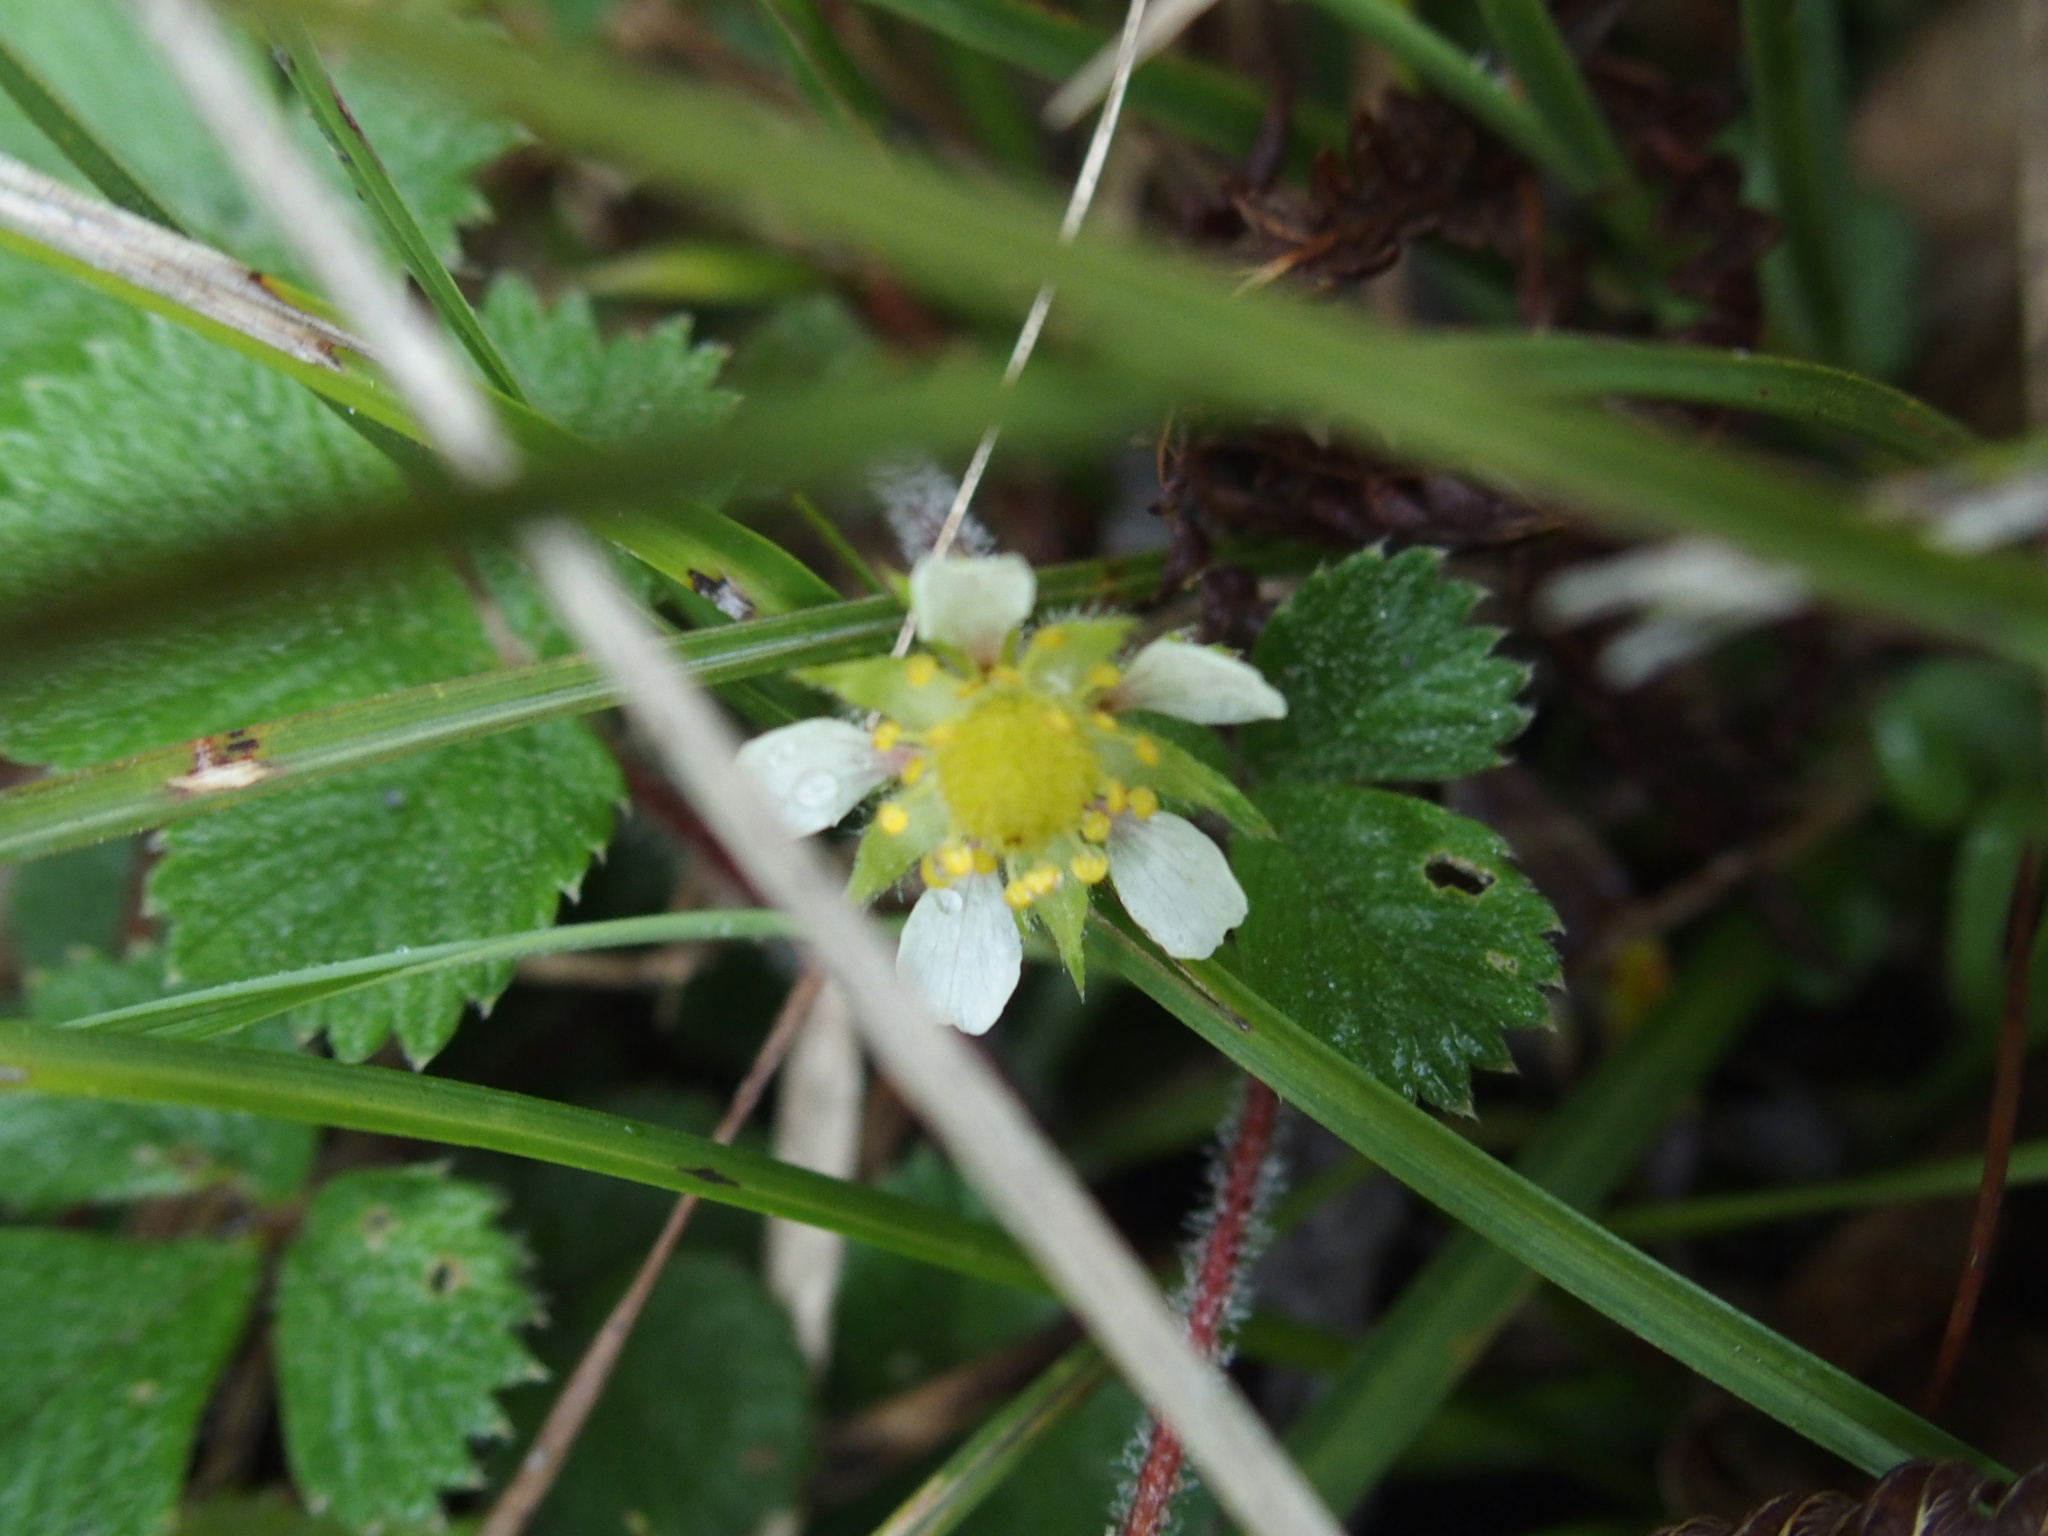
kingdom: Plantae
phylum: Tracheophyta
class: Magnoliopsida
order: Rosales
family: Rosaceae
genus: Fragaria
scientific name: Fragaria nilgerrensis
